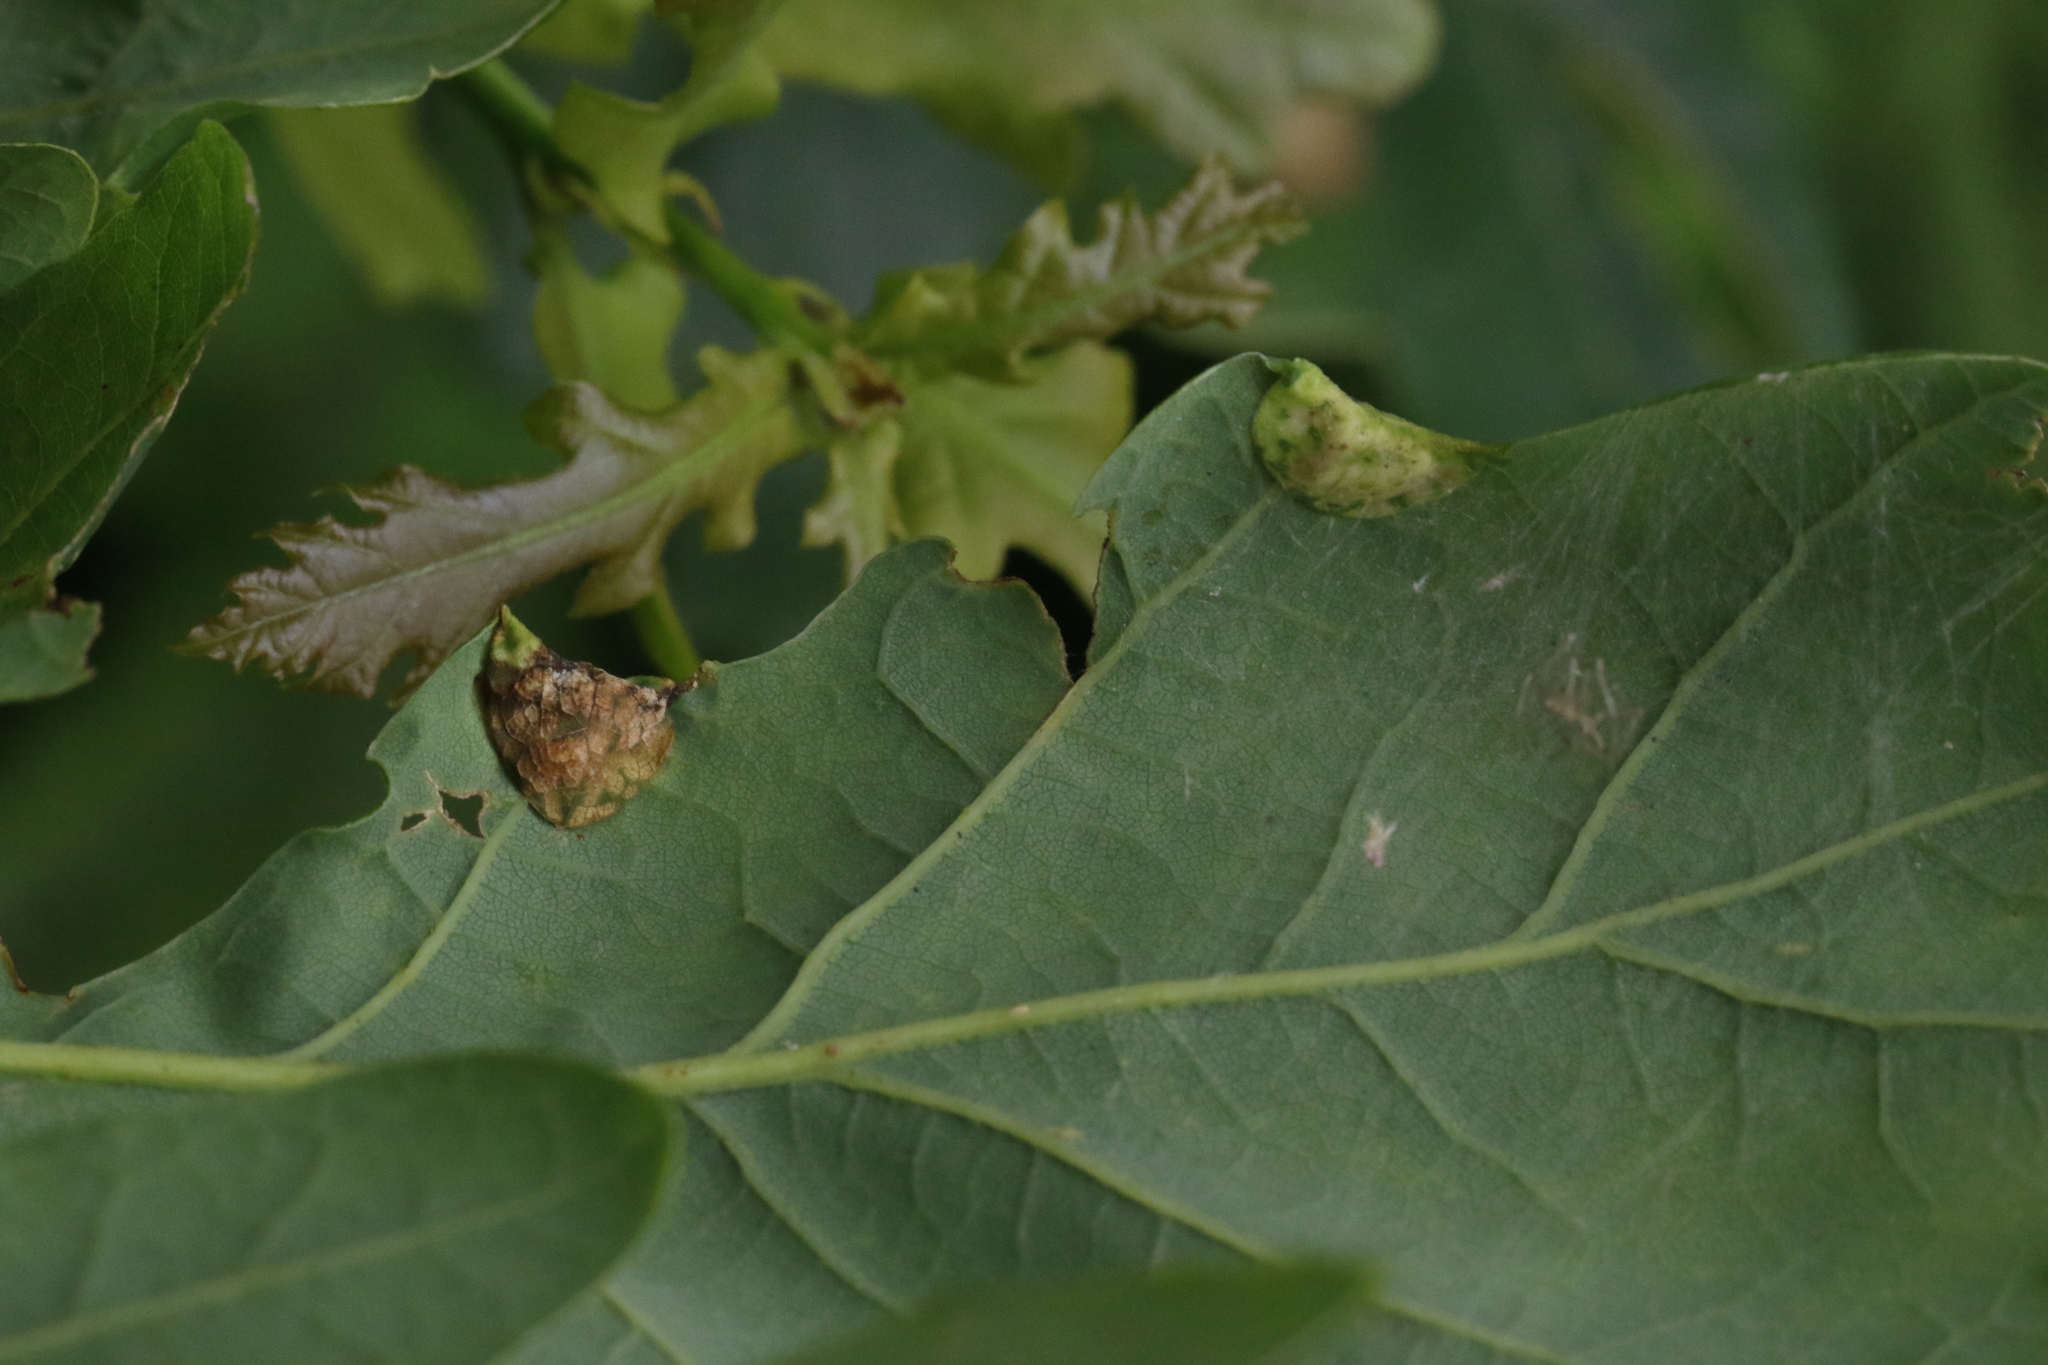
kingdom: Animalia
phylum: Arthropoda
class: Insecta
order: Diptera
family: Cecidomyiidae
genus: Macrodiplosis
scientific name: Macrodiplosis pustularis
